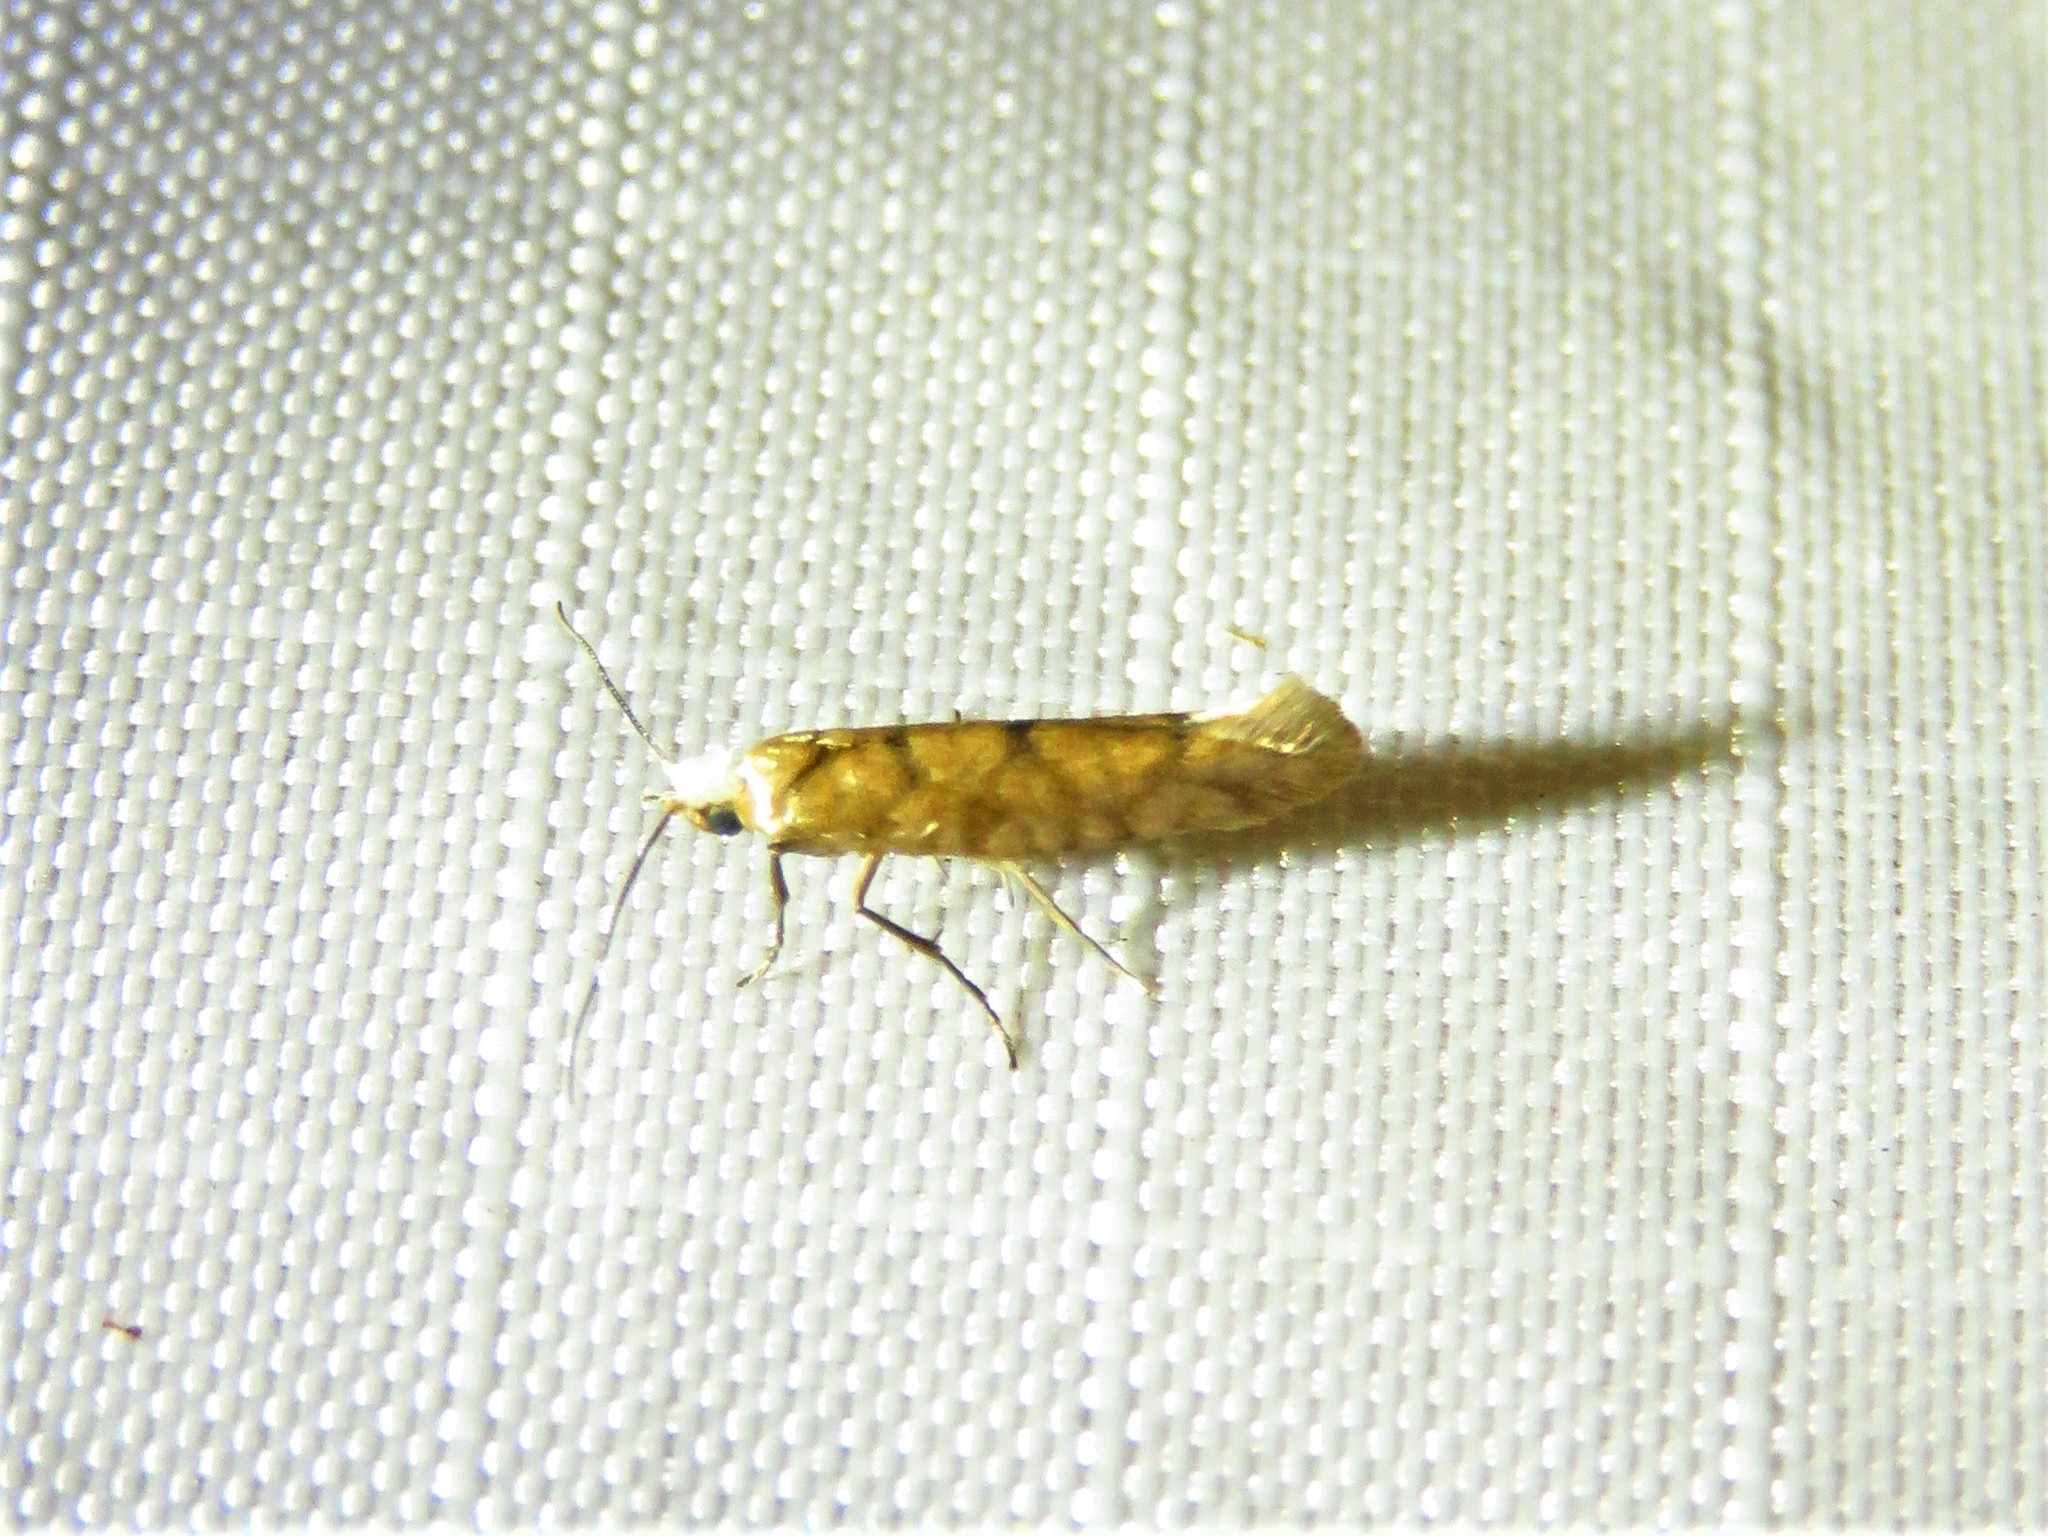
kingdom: Animalia
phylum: Arthropoda
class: Insecta
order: Lepidoptera
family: Argyresthiidae
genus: Argyresthia
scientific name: Argyresthia alternatella
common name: Juniper seed moth
